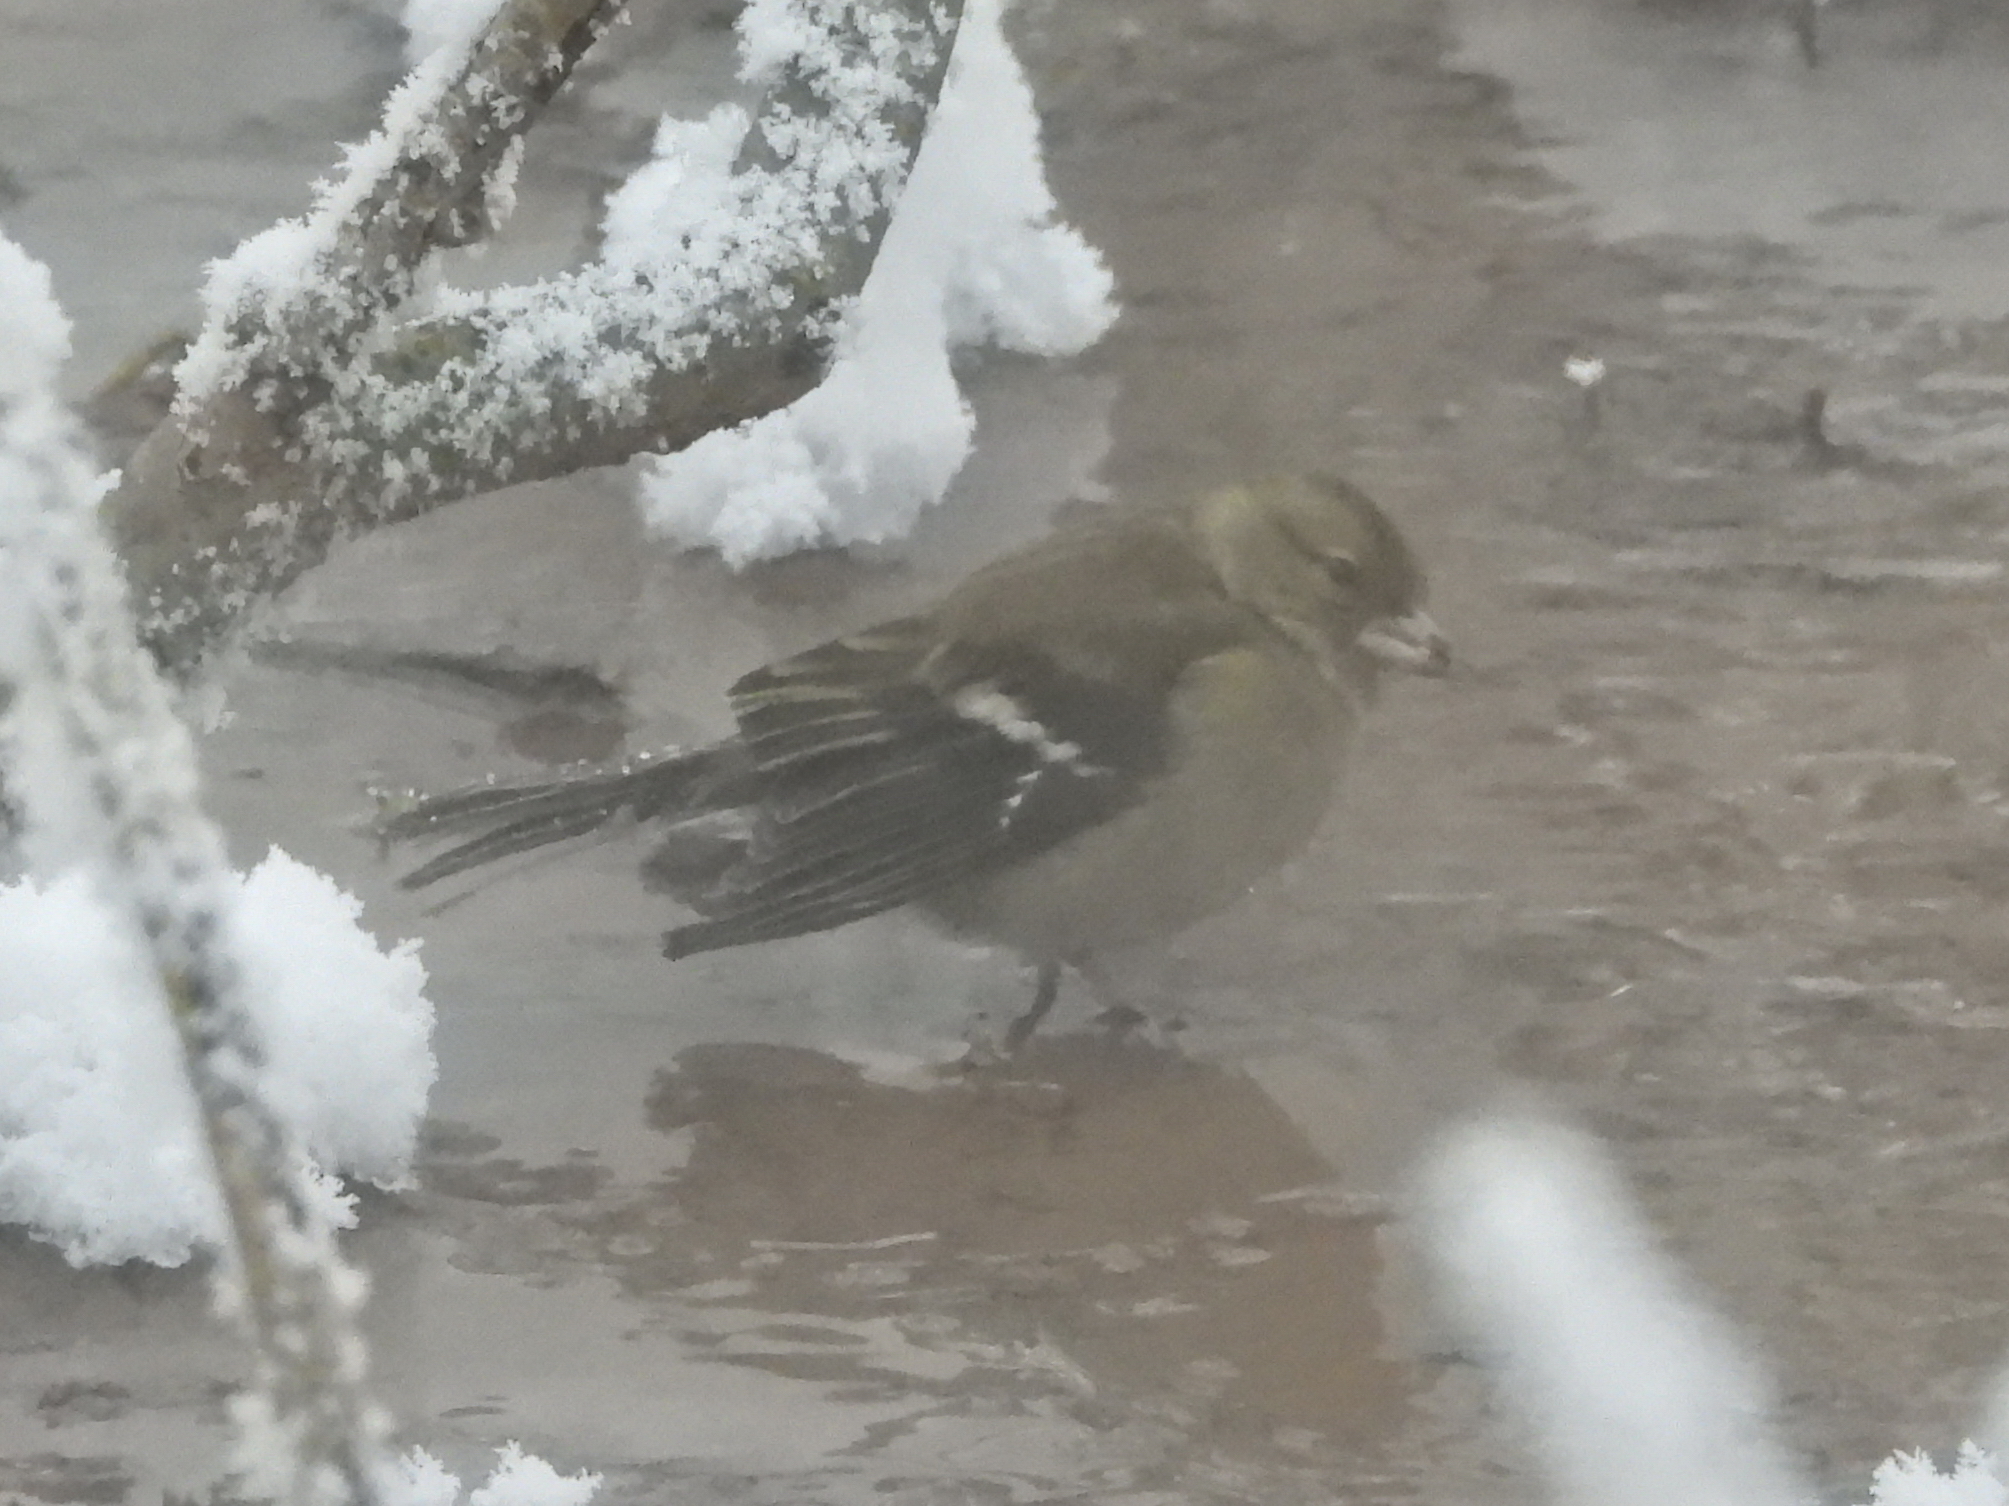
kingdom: Animalia
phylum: Chordata
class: Aves
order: Passeriformes
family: Fringillidae
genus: Fringilla
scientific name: Fringilla coelebs
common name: Common chaffinch
